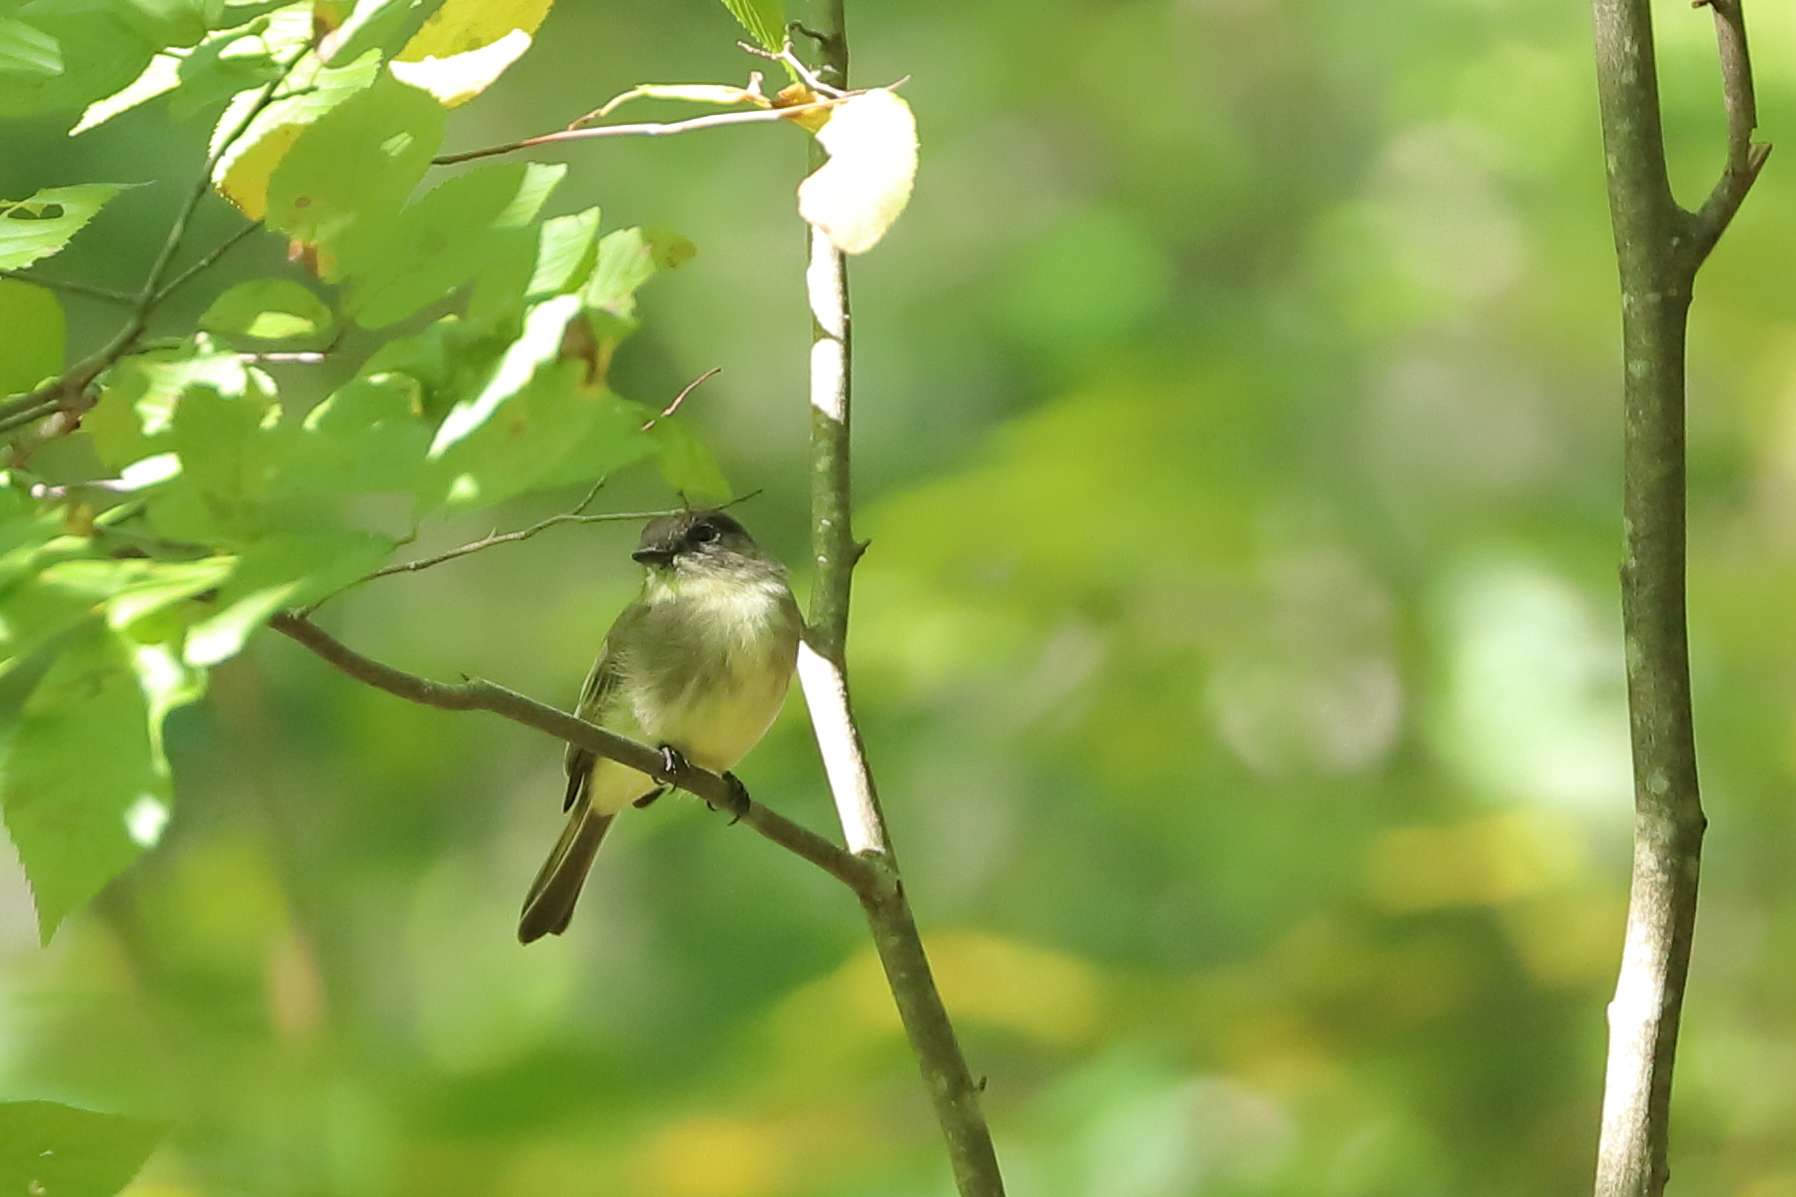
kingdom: Animalia
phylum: Chordata
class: Aves
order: Passeriformes
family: Tyrannidae
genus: Sayornis
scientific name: Sayornis phoebe
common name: Eastern phoebe
